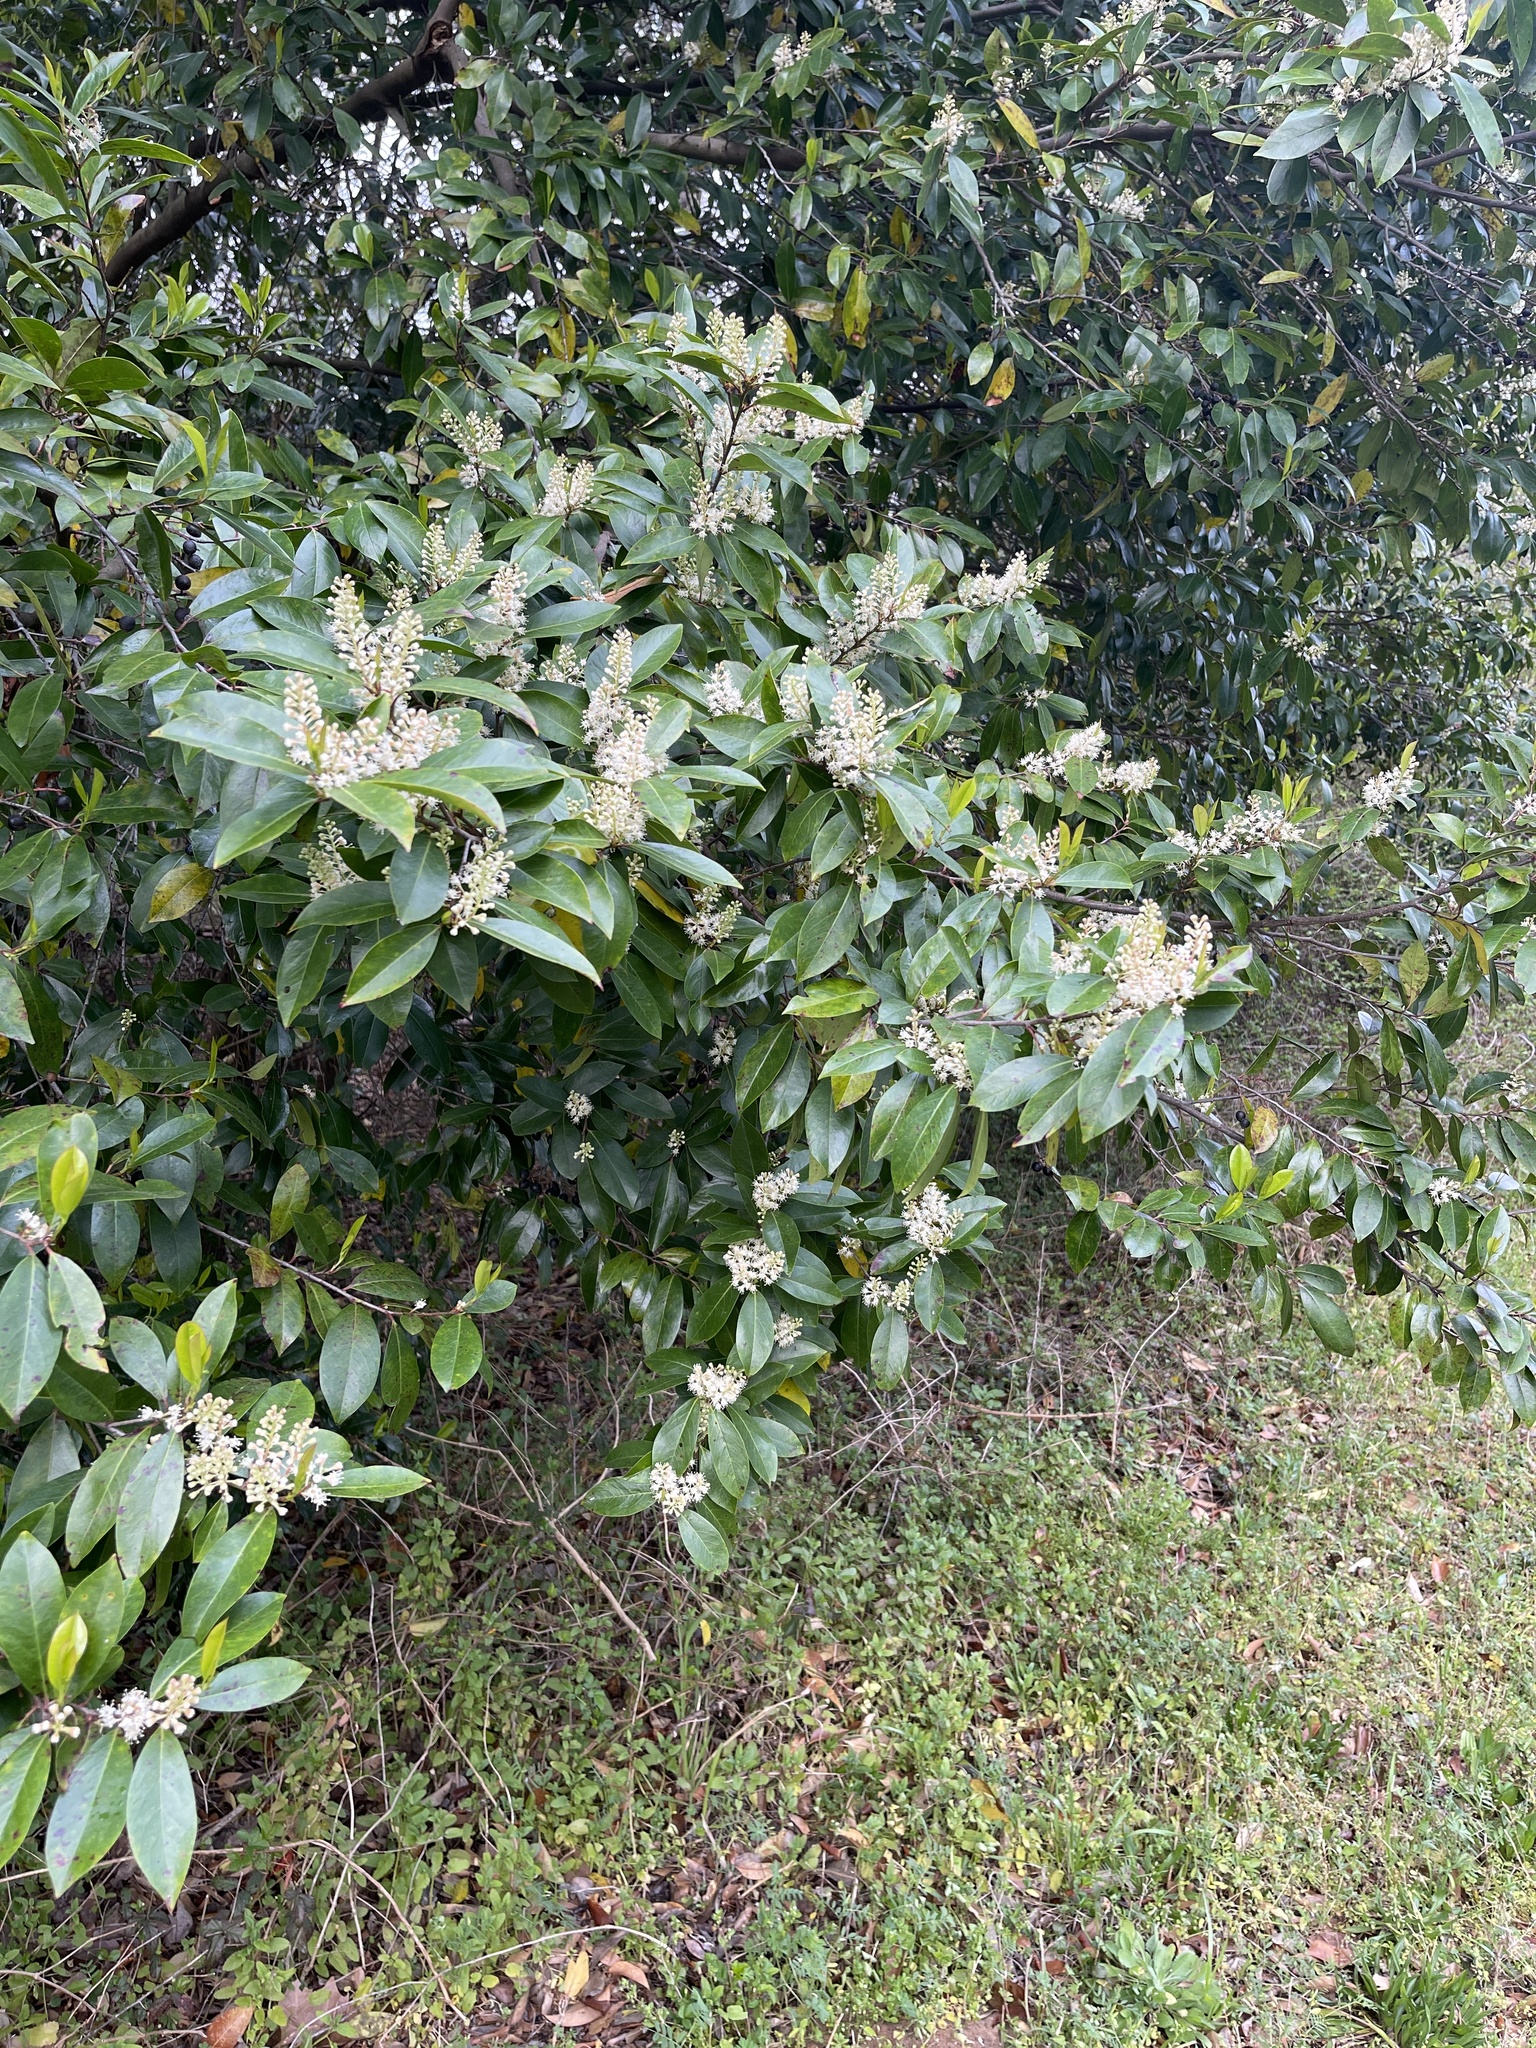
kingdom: Plantae
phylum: Tracheophyta
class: Magnoliopsida
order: Rosales
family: Rosaceae
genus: Prunus
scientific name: Prunus caroliniana
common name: Carolina laurel cherry
